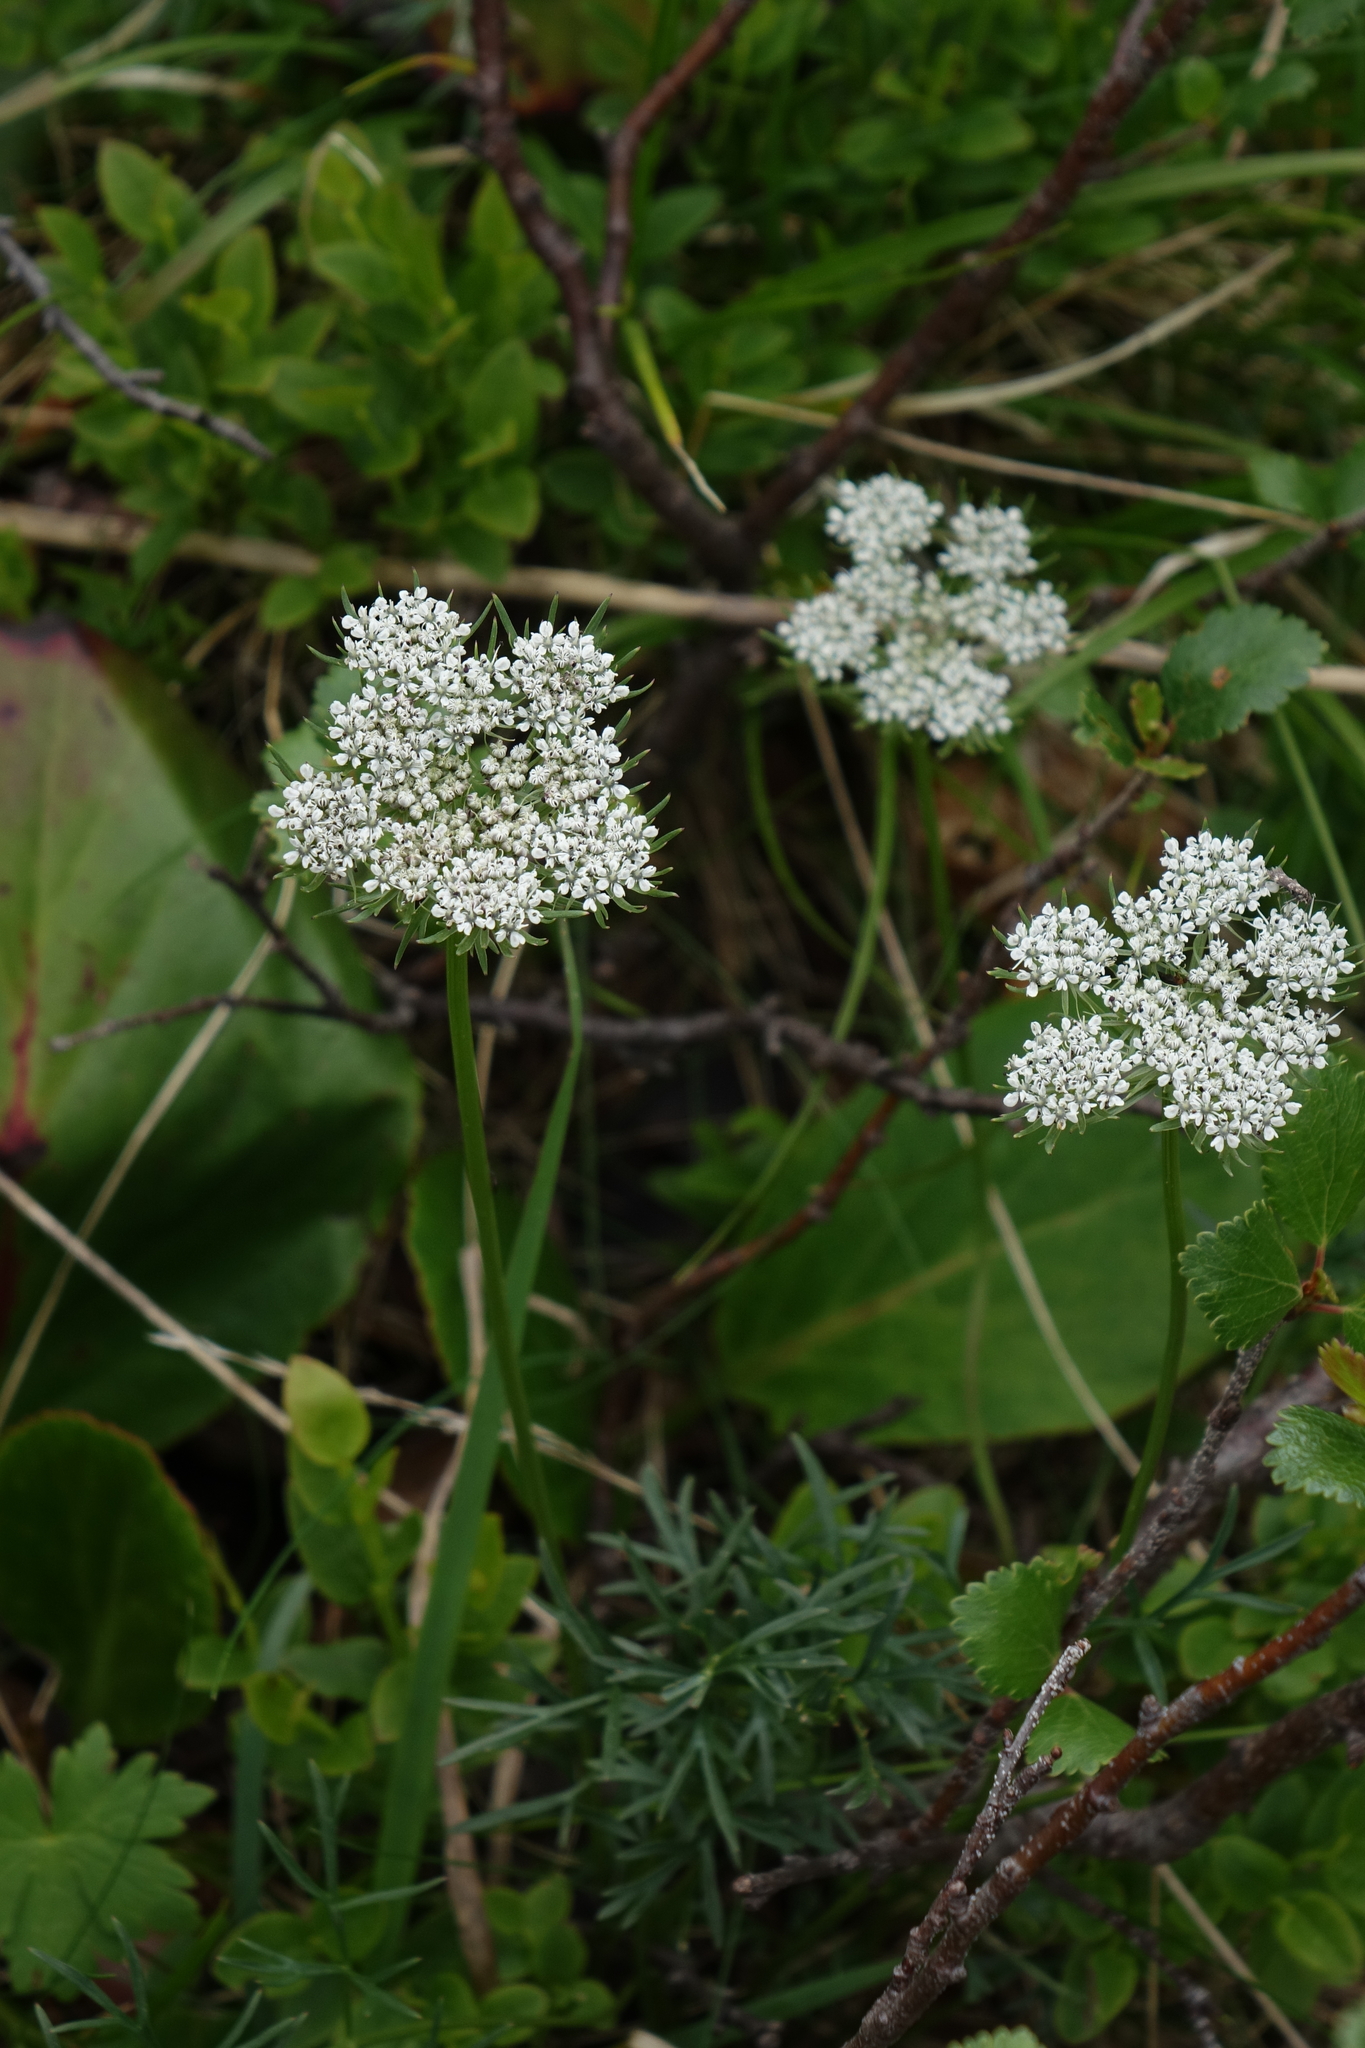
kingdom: Plantae
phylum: Tracheophyta
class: Magnoliopsida
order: Apiales
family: Apiaceae
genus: Pachypleurum
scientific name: Pachypleurum mutellinoides
